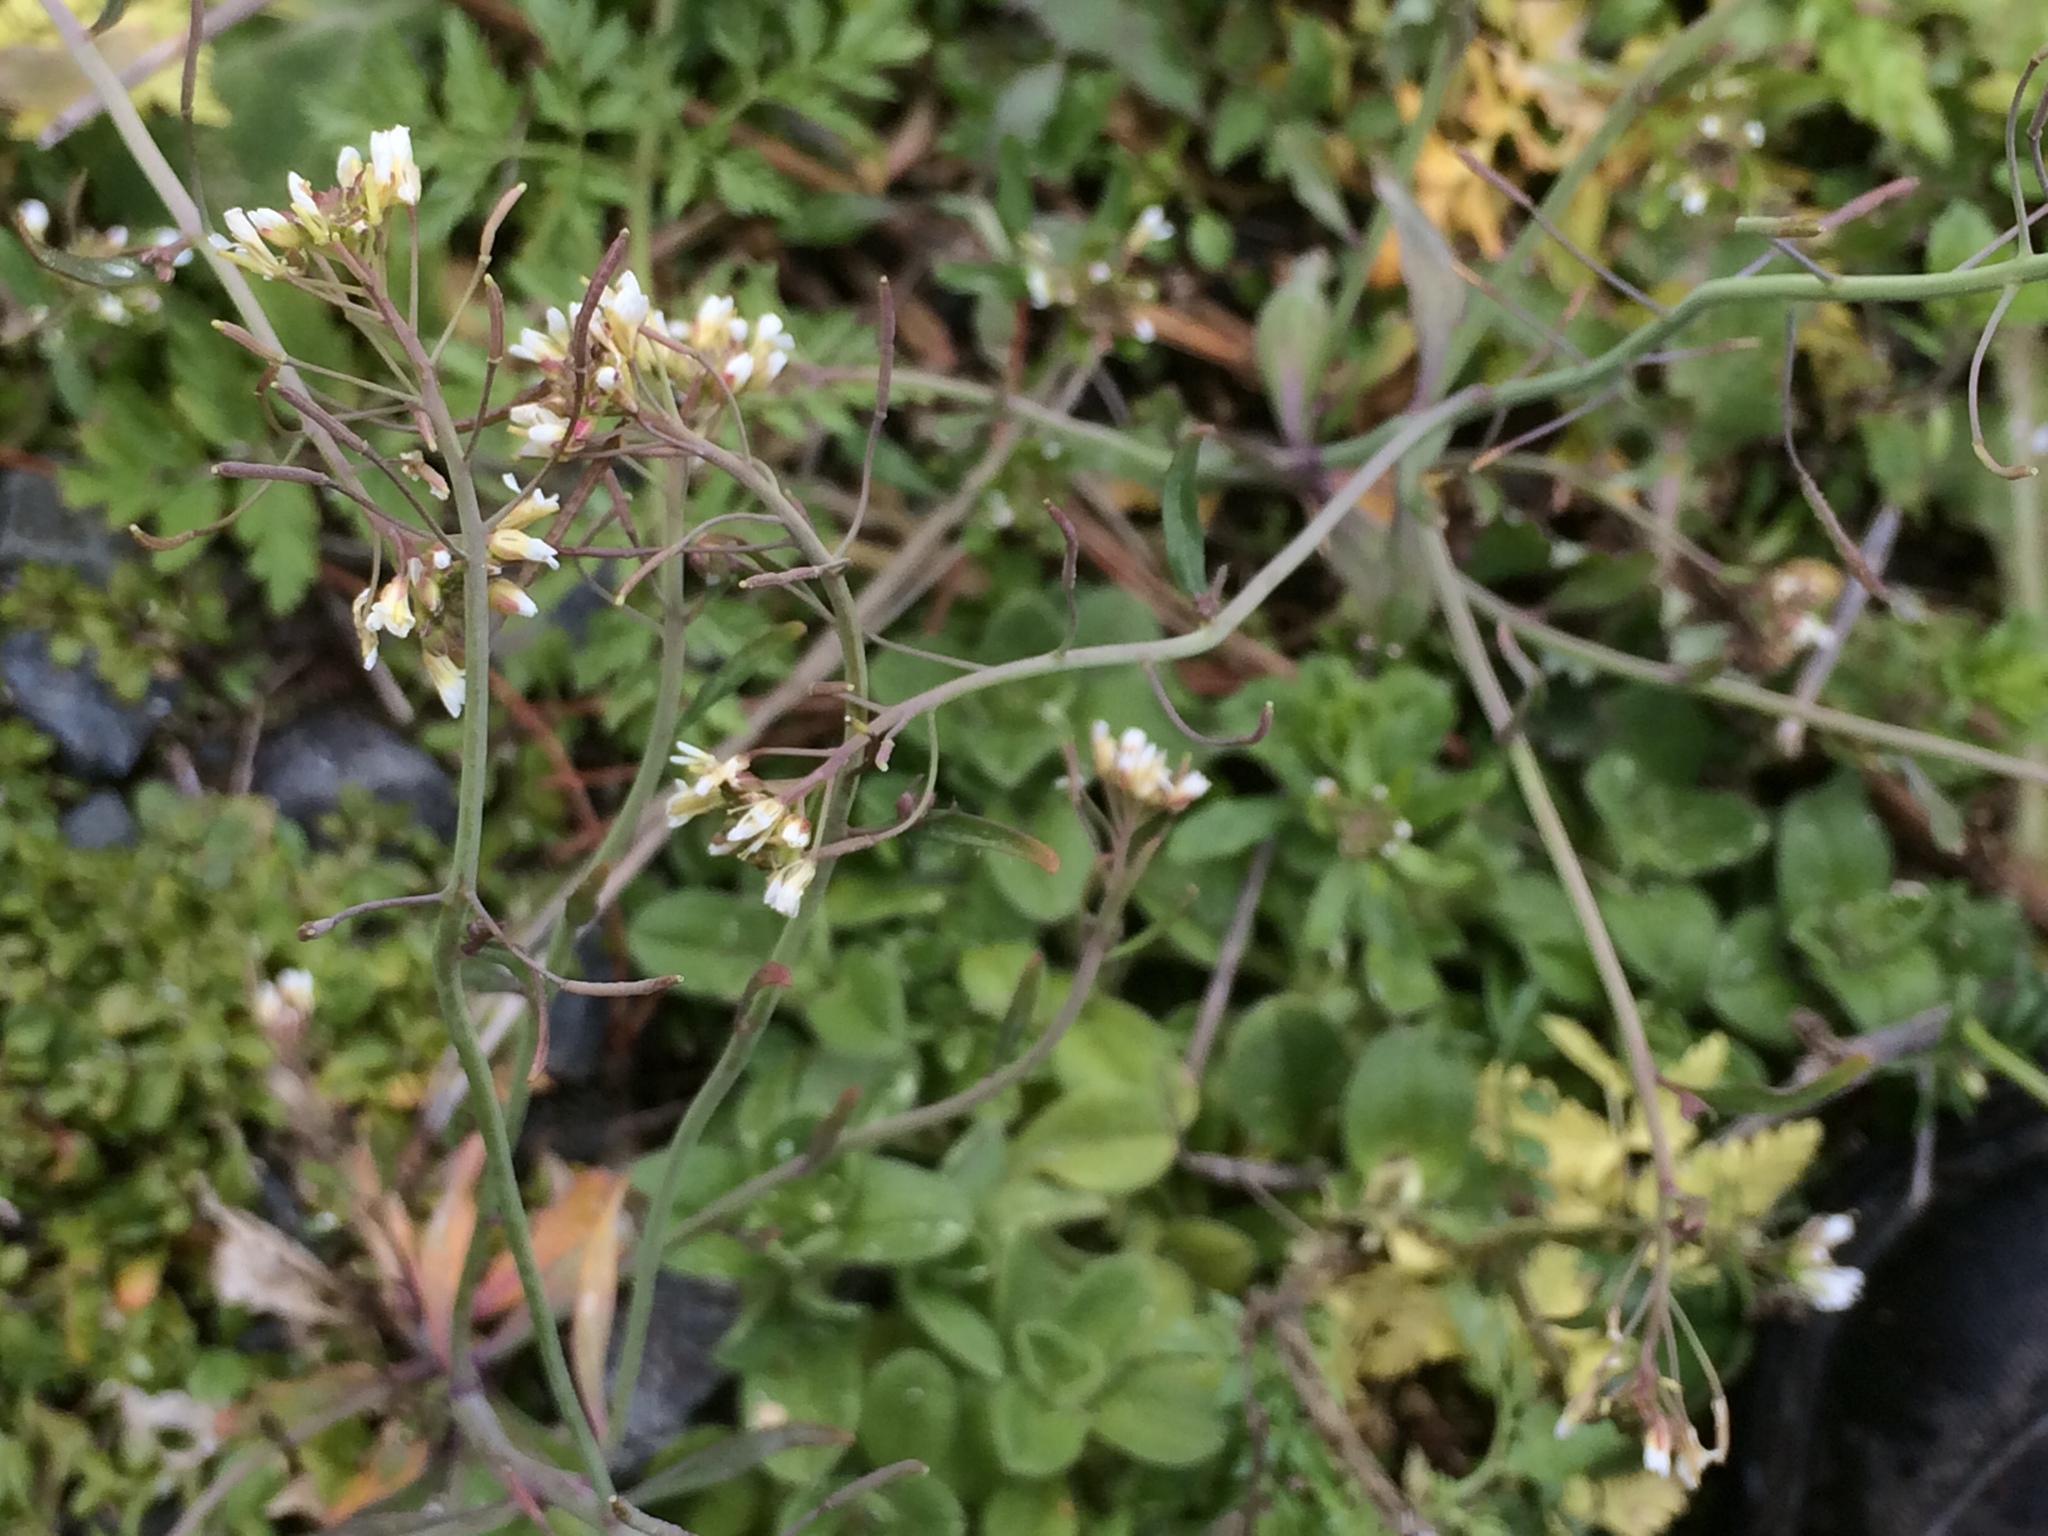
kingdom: Plantae
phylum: Tracheophyta
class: Magnoliopsida
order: Brassicales
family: Brassicaceae
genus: Arabidopsis
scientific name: Arabidopsis thaliana
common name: Thale cress
